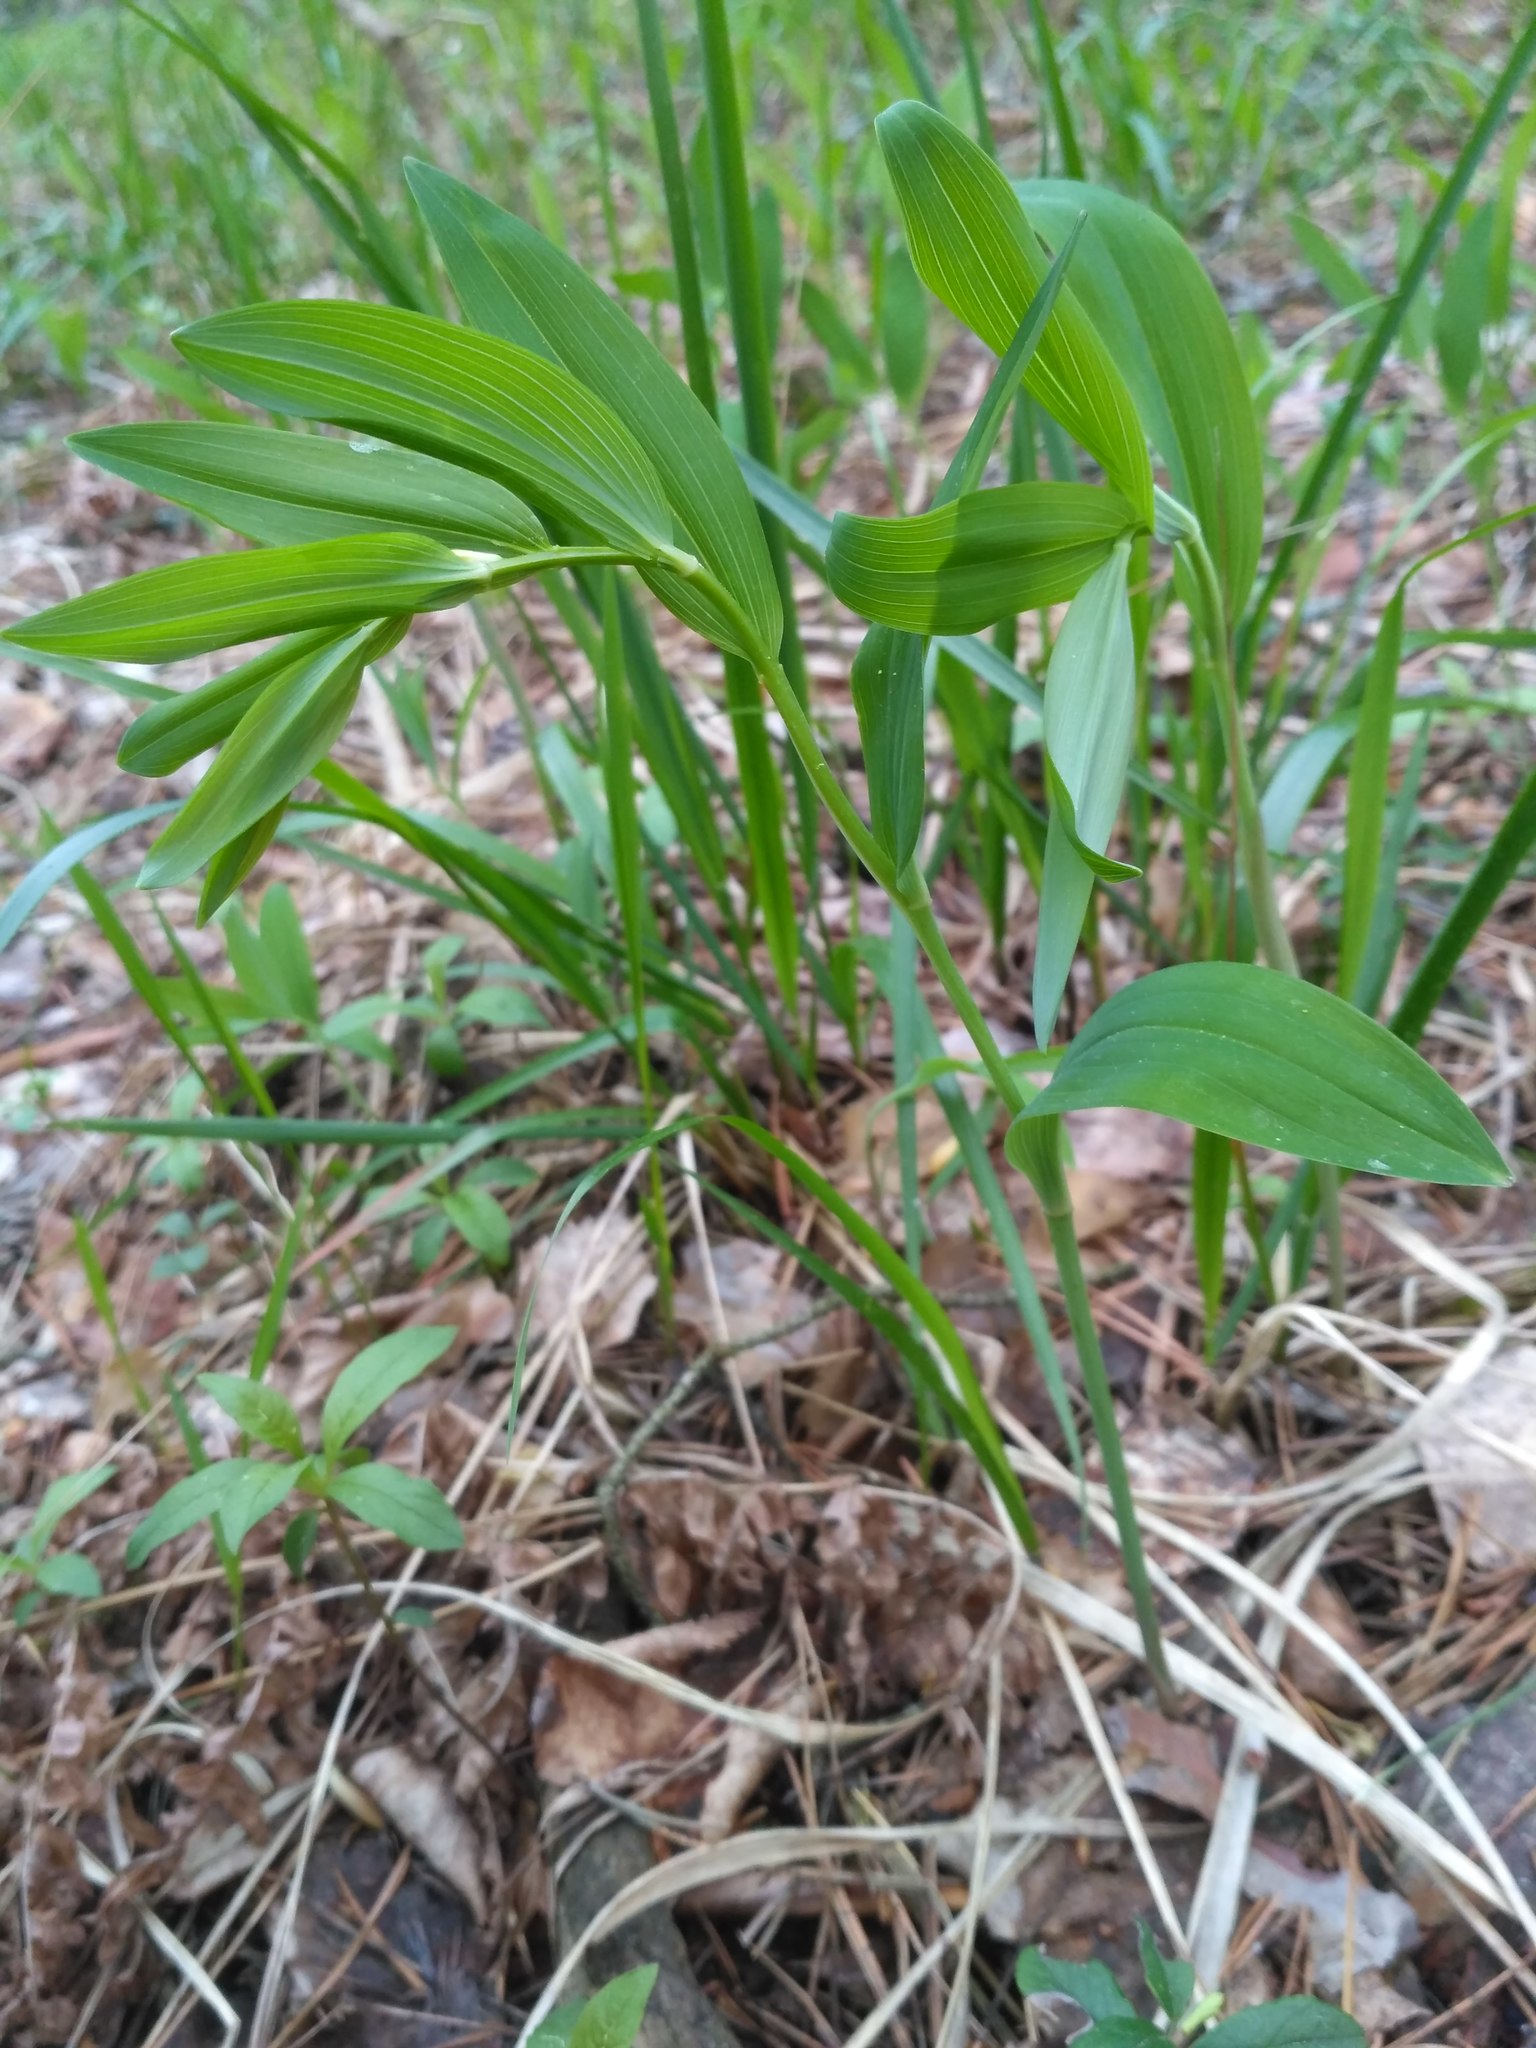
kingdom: Plantae
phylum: Tracheophyta
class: Liliopsida
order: Asparagales
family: Asparagaceae
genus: Polygonatum
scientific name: Polygonatum odoratum
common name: Angular solomon's-seal
